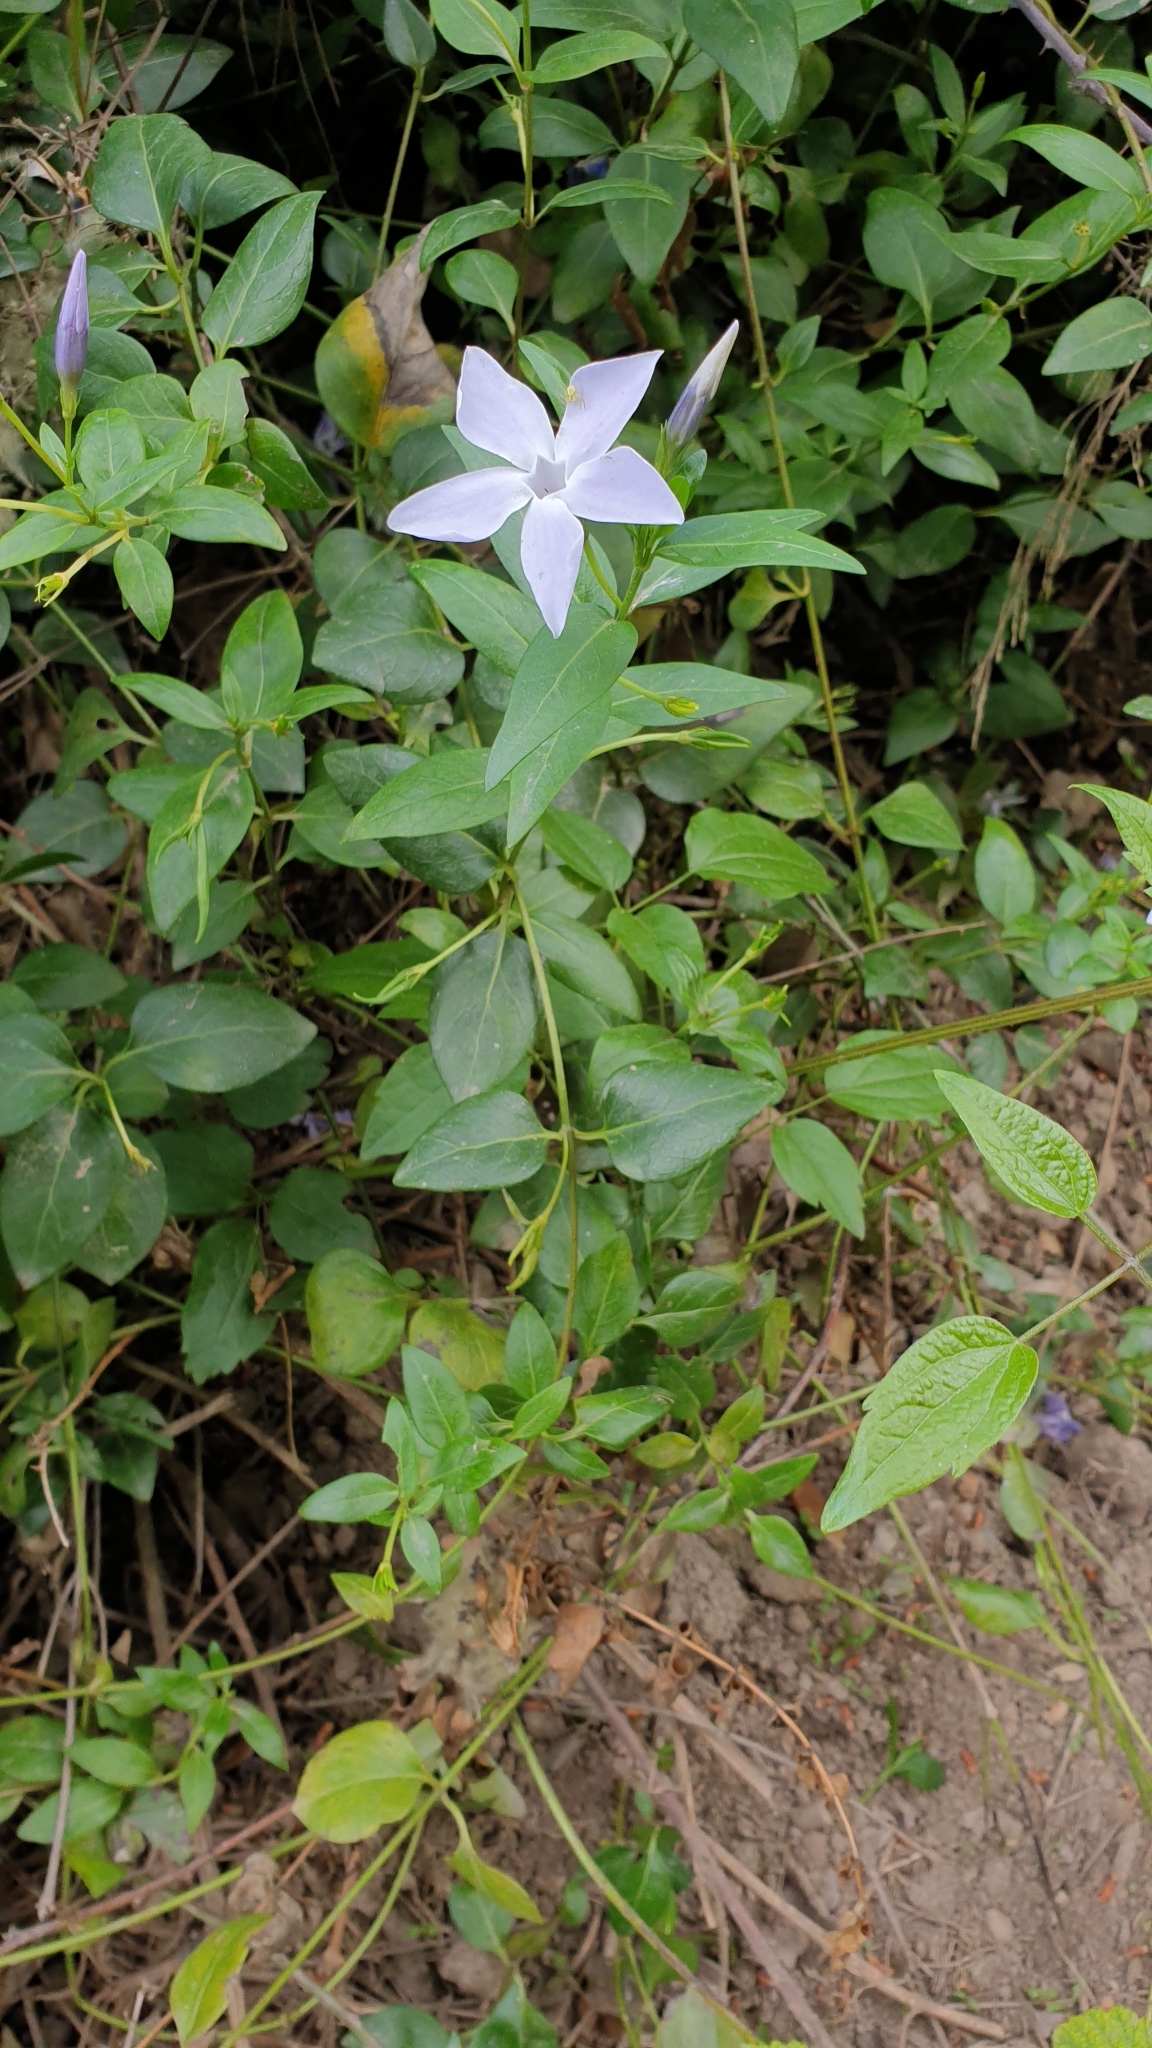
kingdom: Plantae
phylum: Tracheophyta
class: Magnoliopsida
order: Gentianales
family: Apocynaceae
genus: Vinca
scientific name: Vinca difformis
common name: Intermediate periwinkle
